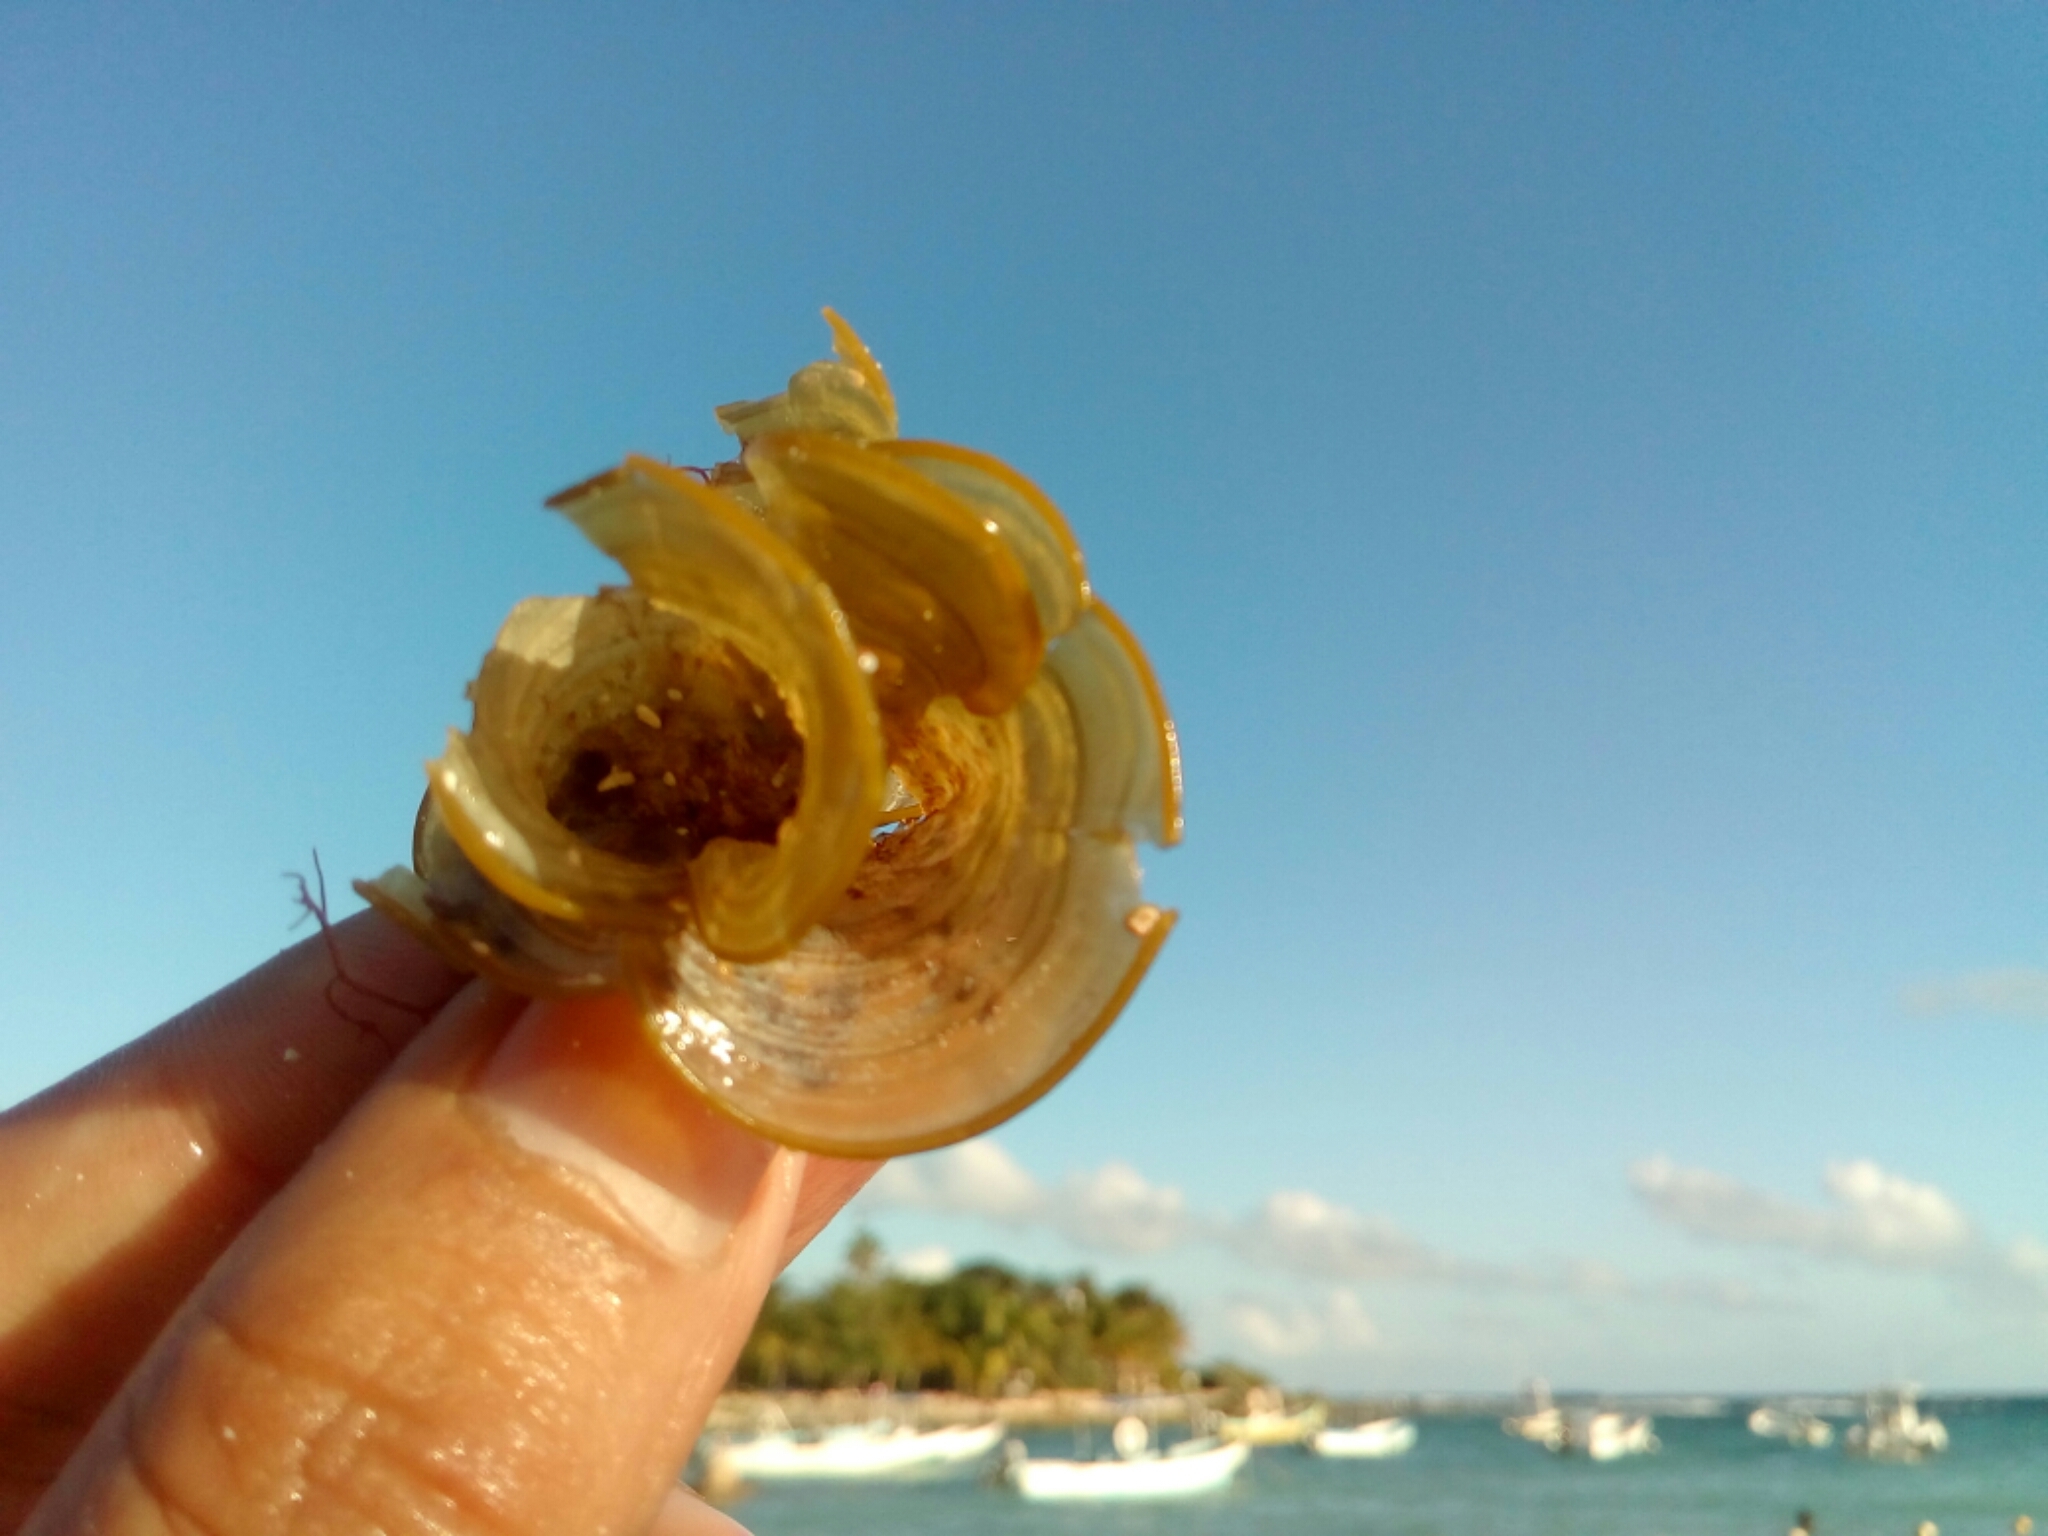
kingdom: Chromista
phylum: Ochrophyta
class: Phaeophyceae
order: Dictyotales
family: Dictyotaceae
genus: Padina
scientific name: Padina sanctae-crucis
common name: White scroll algae
